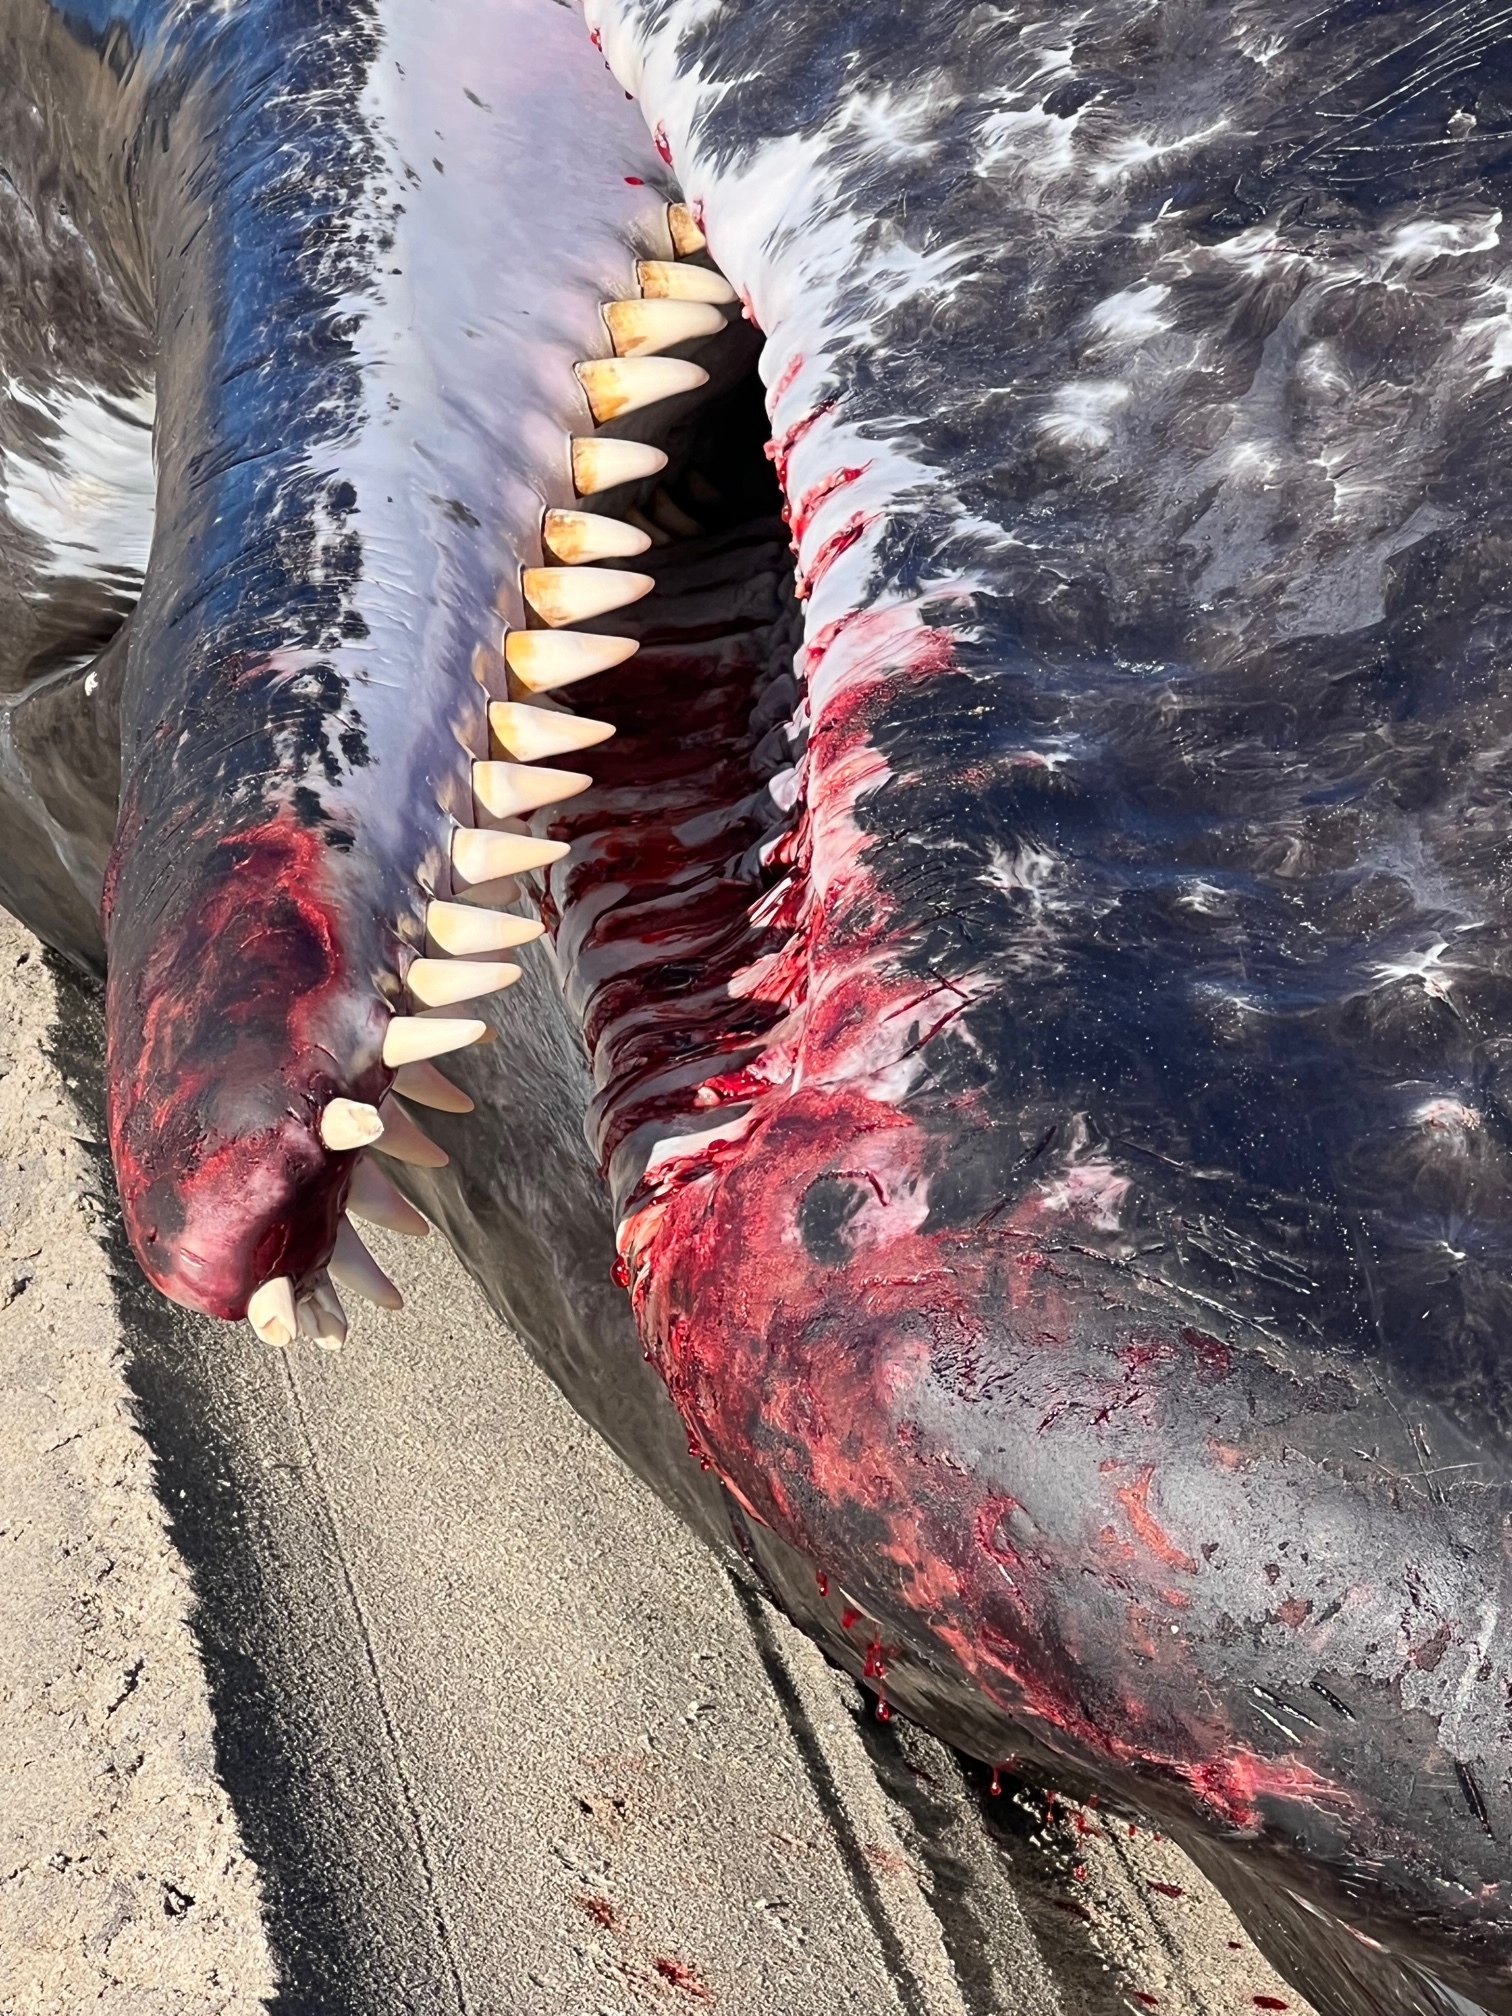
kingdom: Animalia
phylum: Chordata
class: Mammalia
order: Cetacea
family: Physeteridae
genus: Physeter
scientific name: Physeter macrocephalus
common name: Sperm whale
